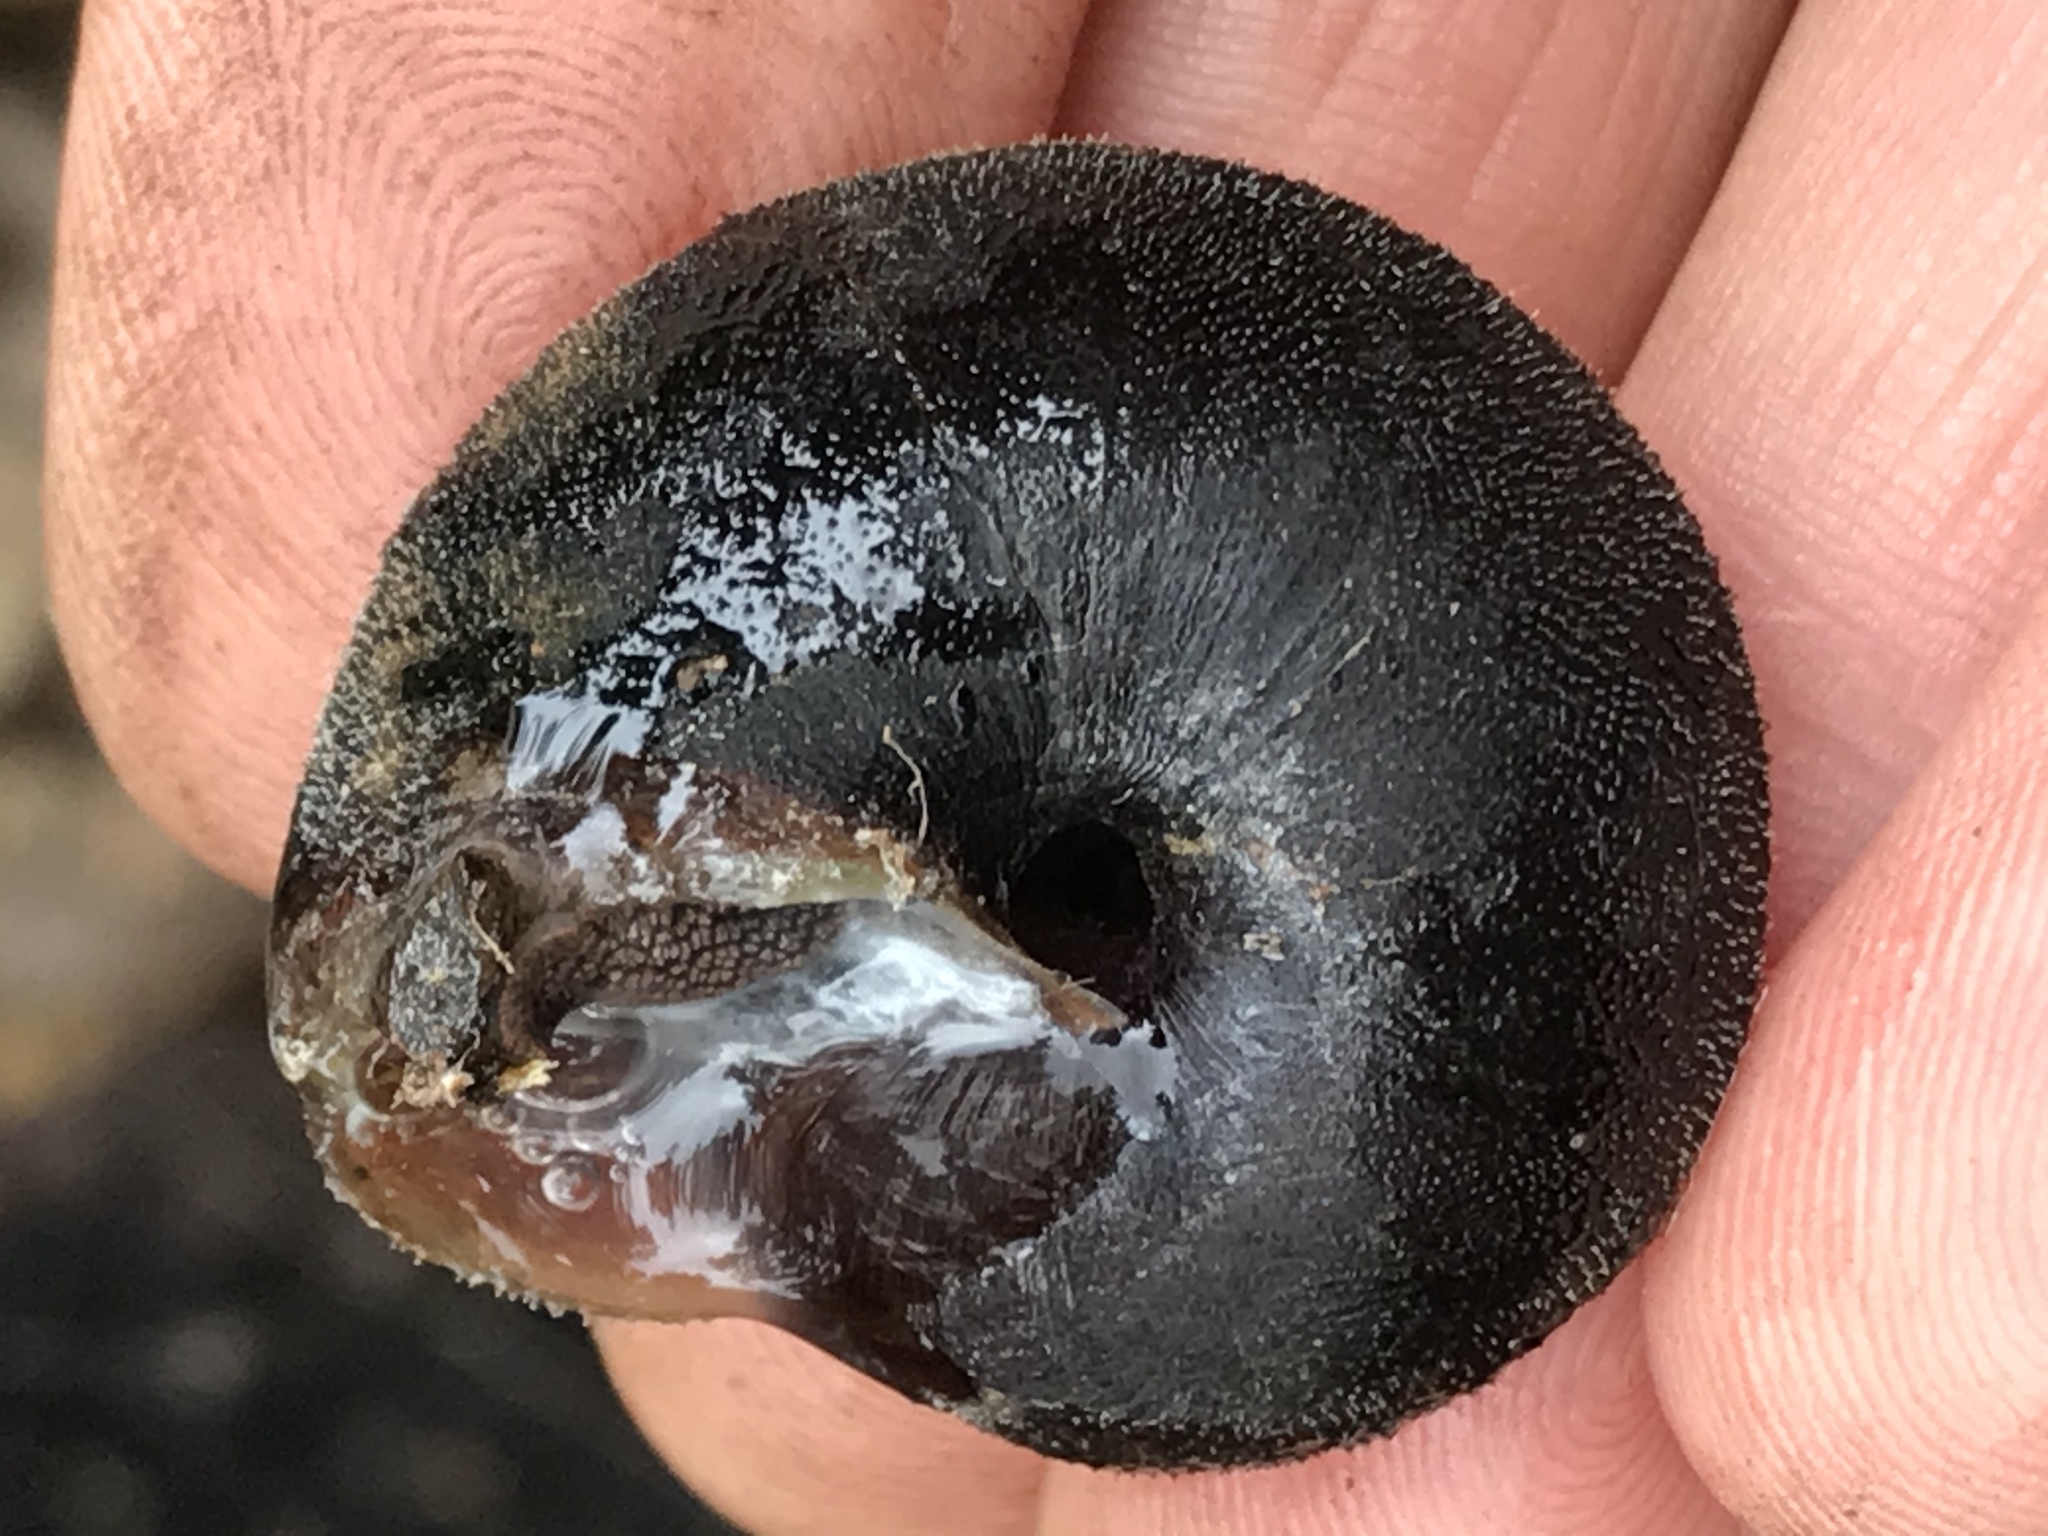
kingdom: Animalia
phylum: Mollusca
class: Gastropoda
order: Stylommatophora
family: Xanthonychidae
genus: Monadenia
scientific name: Monadenia infumata
